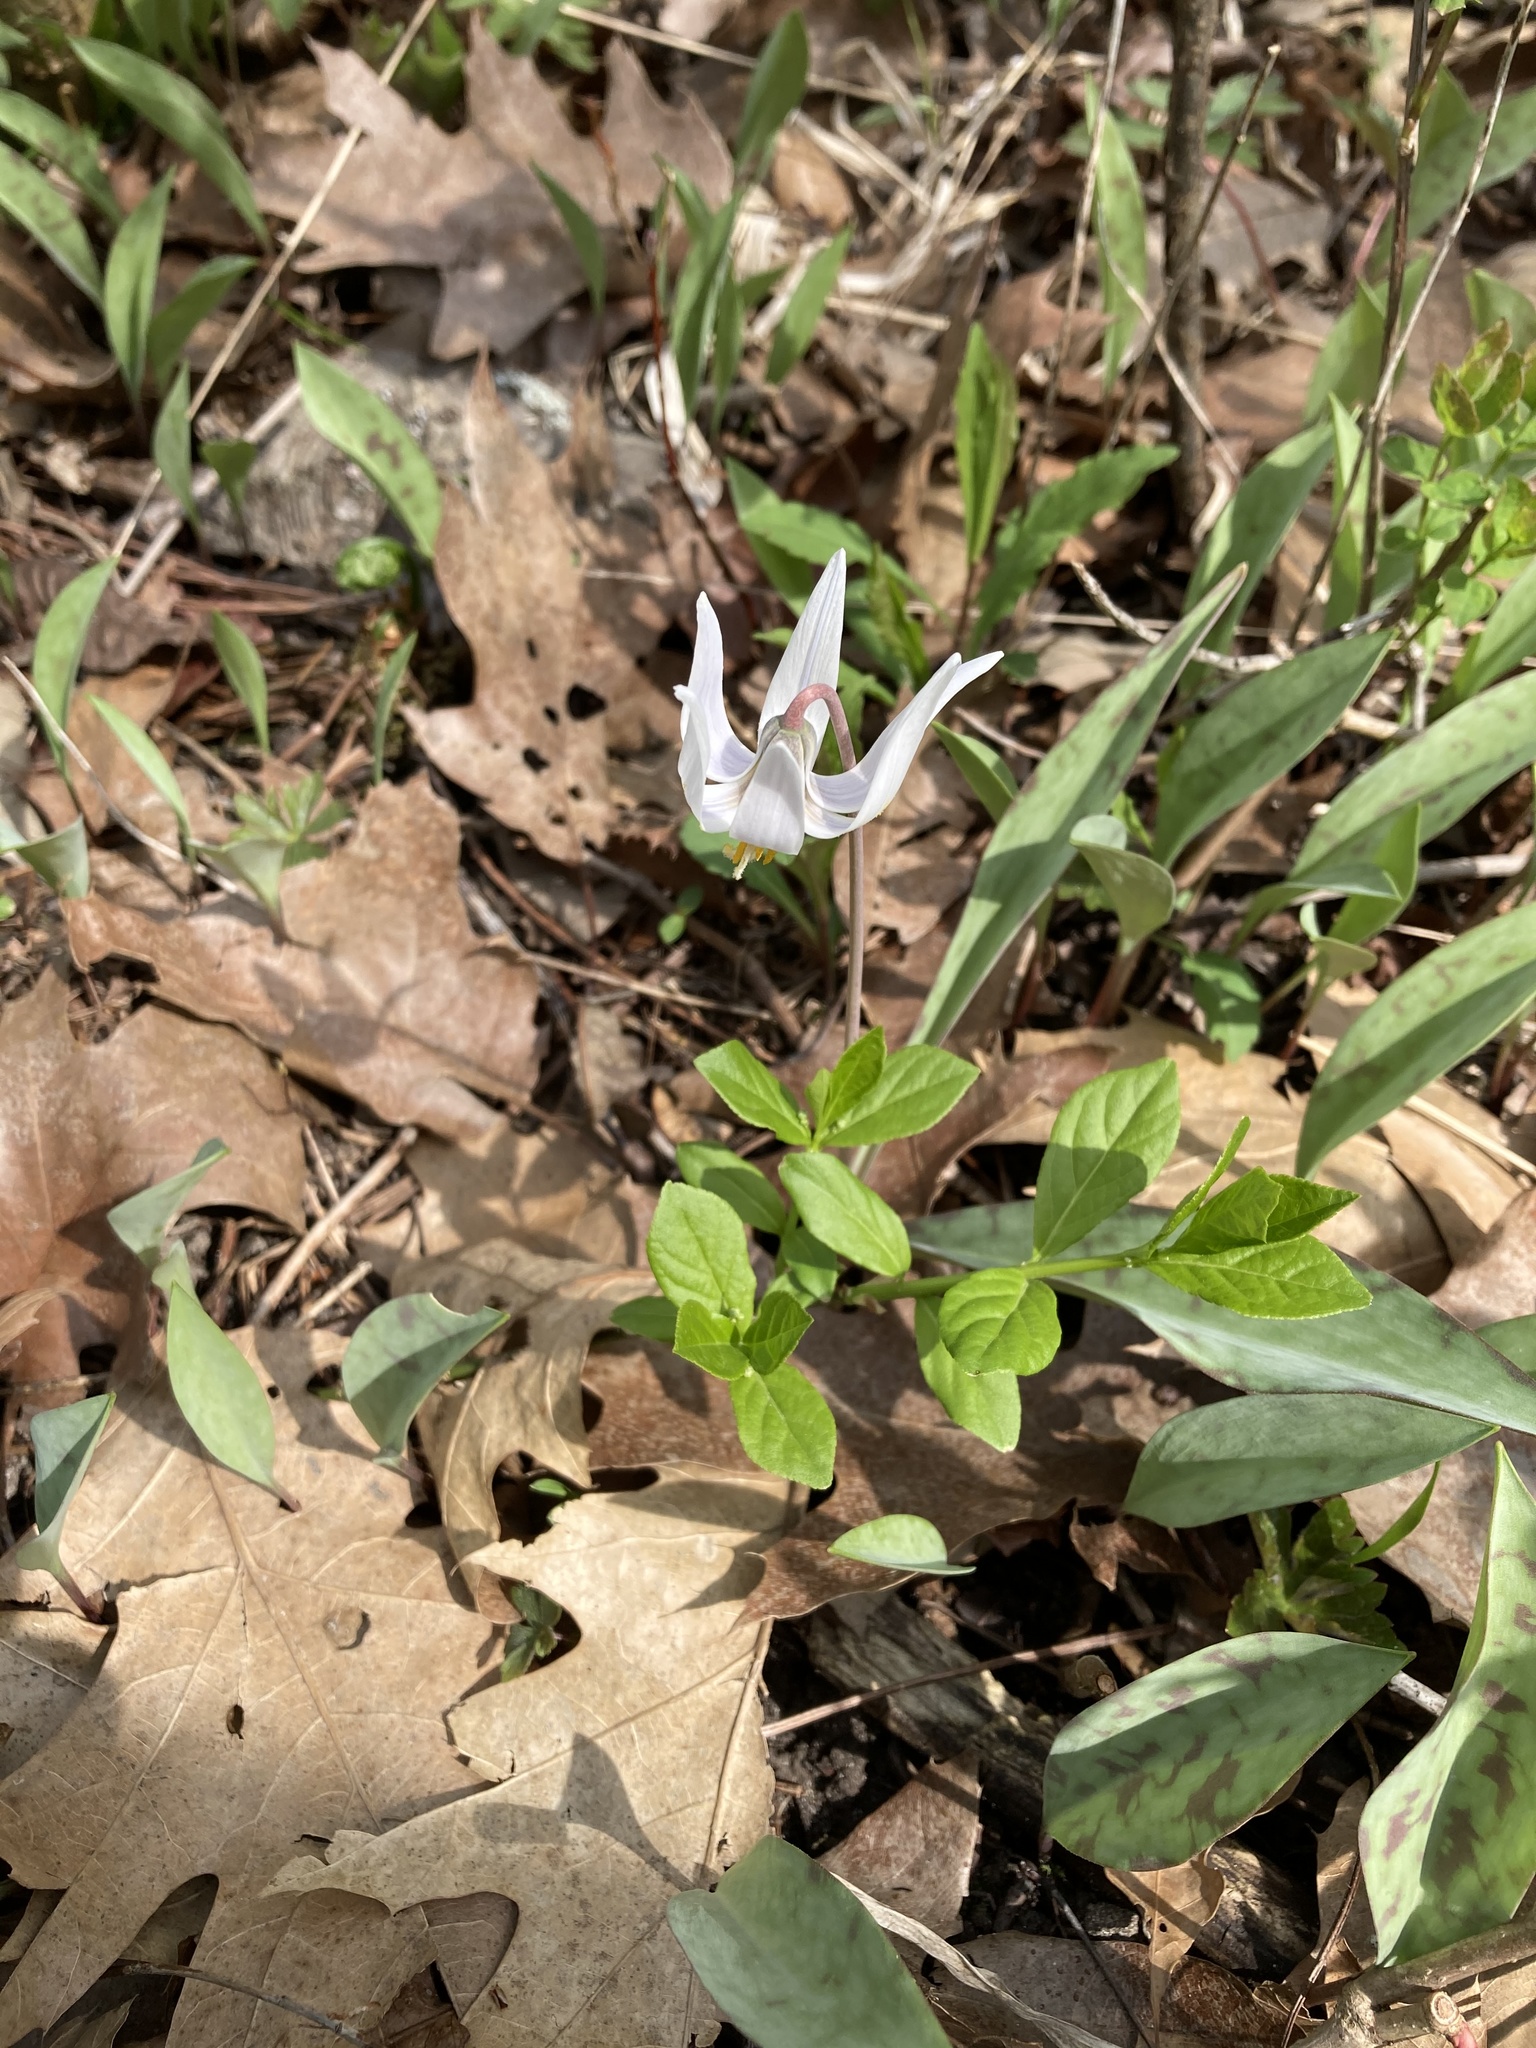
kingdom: Plantae
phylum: Tracheophyta
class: Liliopsida
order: Liliales
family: Liliaceae
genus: Erythronium
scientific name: Erythronium albidum
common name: White trout-lily
